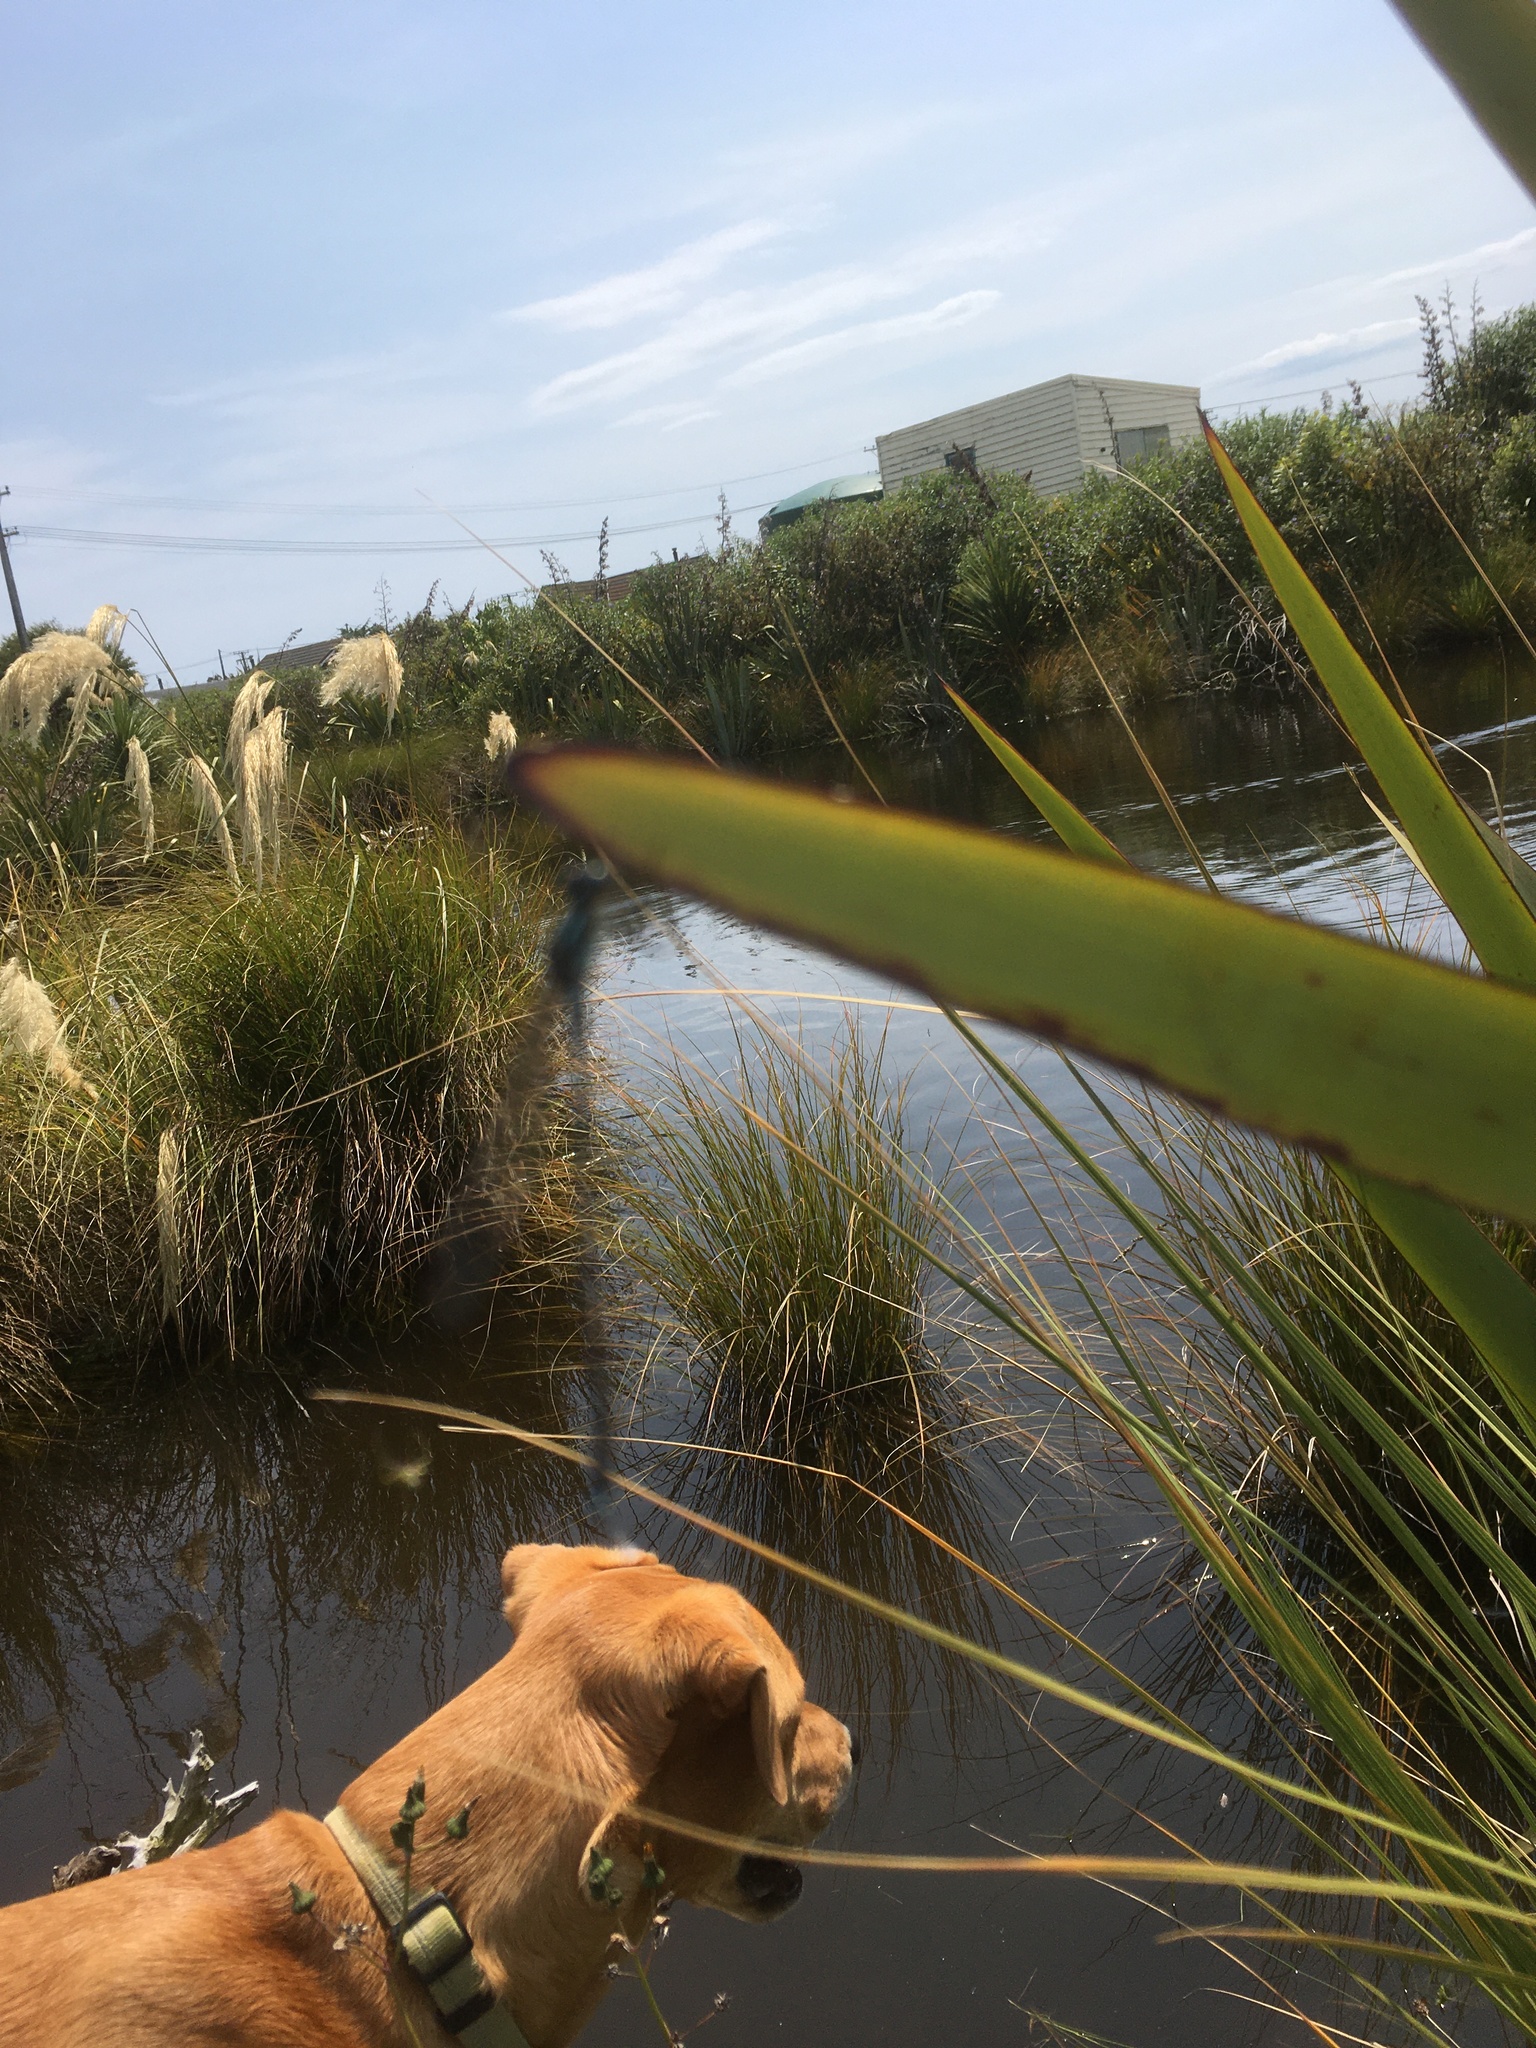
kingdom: Animalia
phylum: Arthropoda
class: Insecta
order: Odonata
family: Lestidae
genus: Austrolestes
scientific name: Austrolestes colensonis
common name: Blue damselfly
